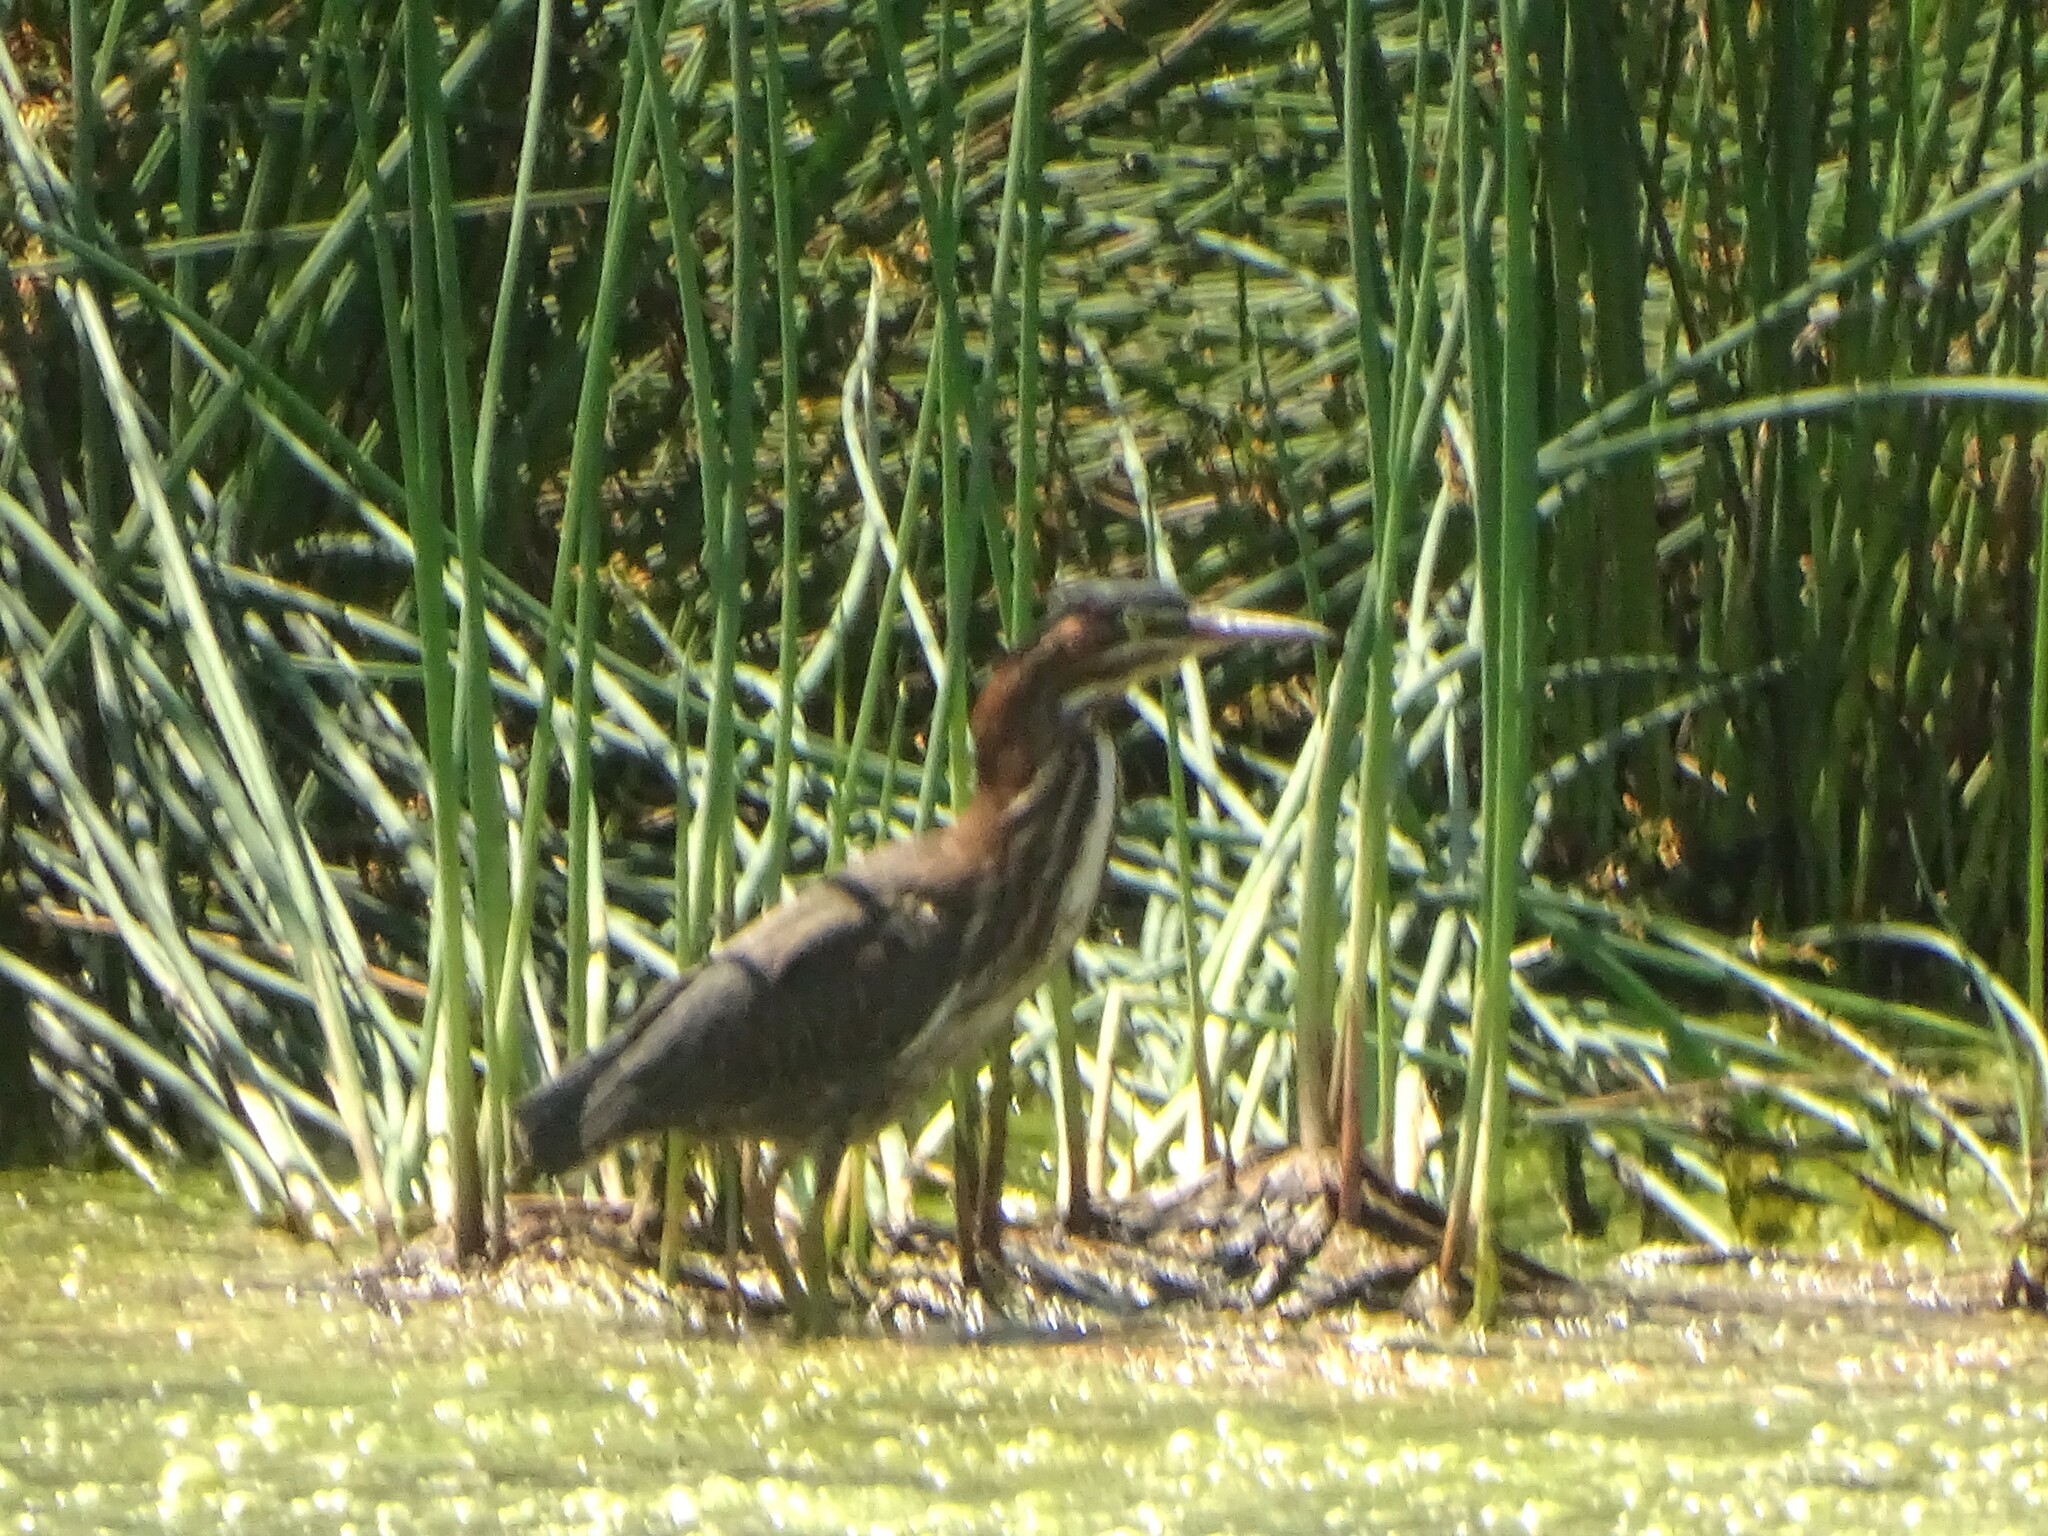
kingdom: Animalia
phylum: Chordata
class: Aves
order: Pelecaniformes
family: Ardeidae
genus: Butorides
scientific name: Butorides virescens
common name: Green heron
